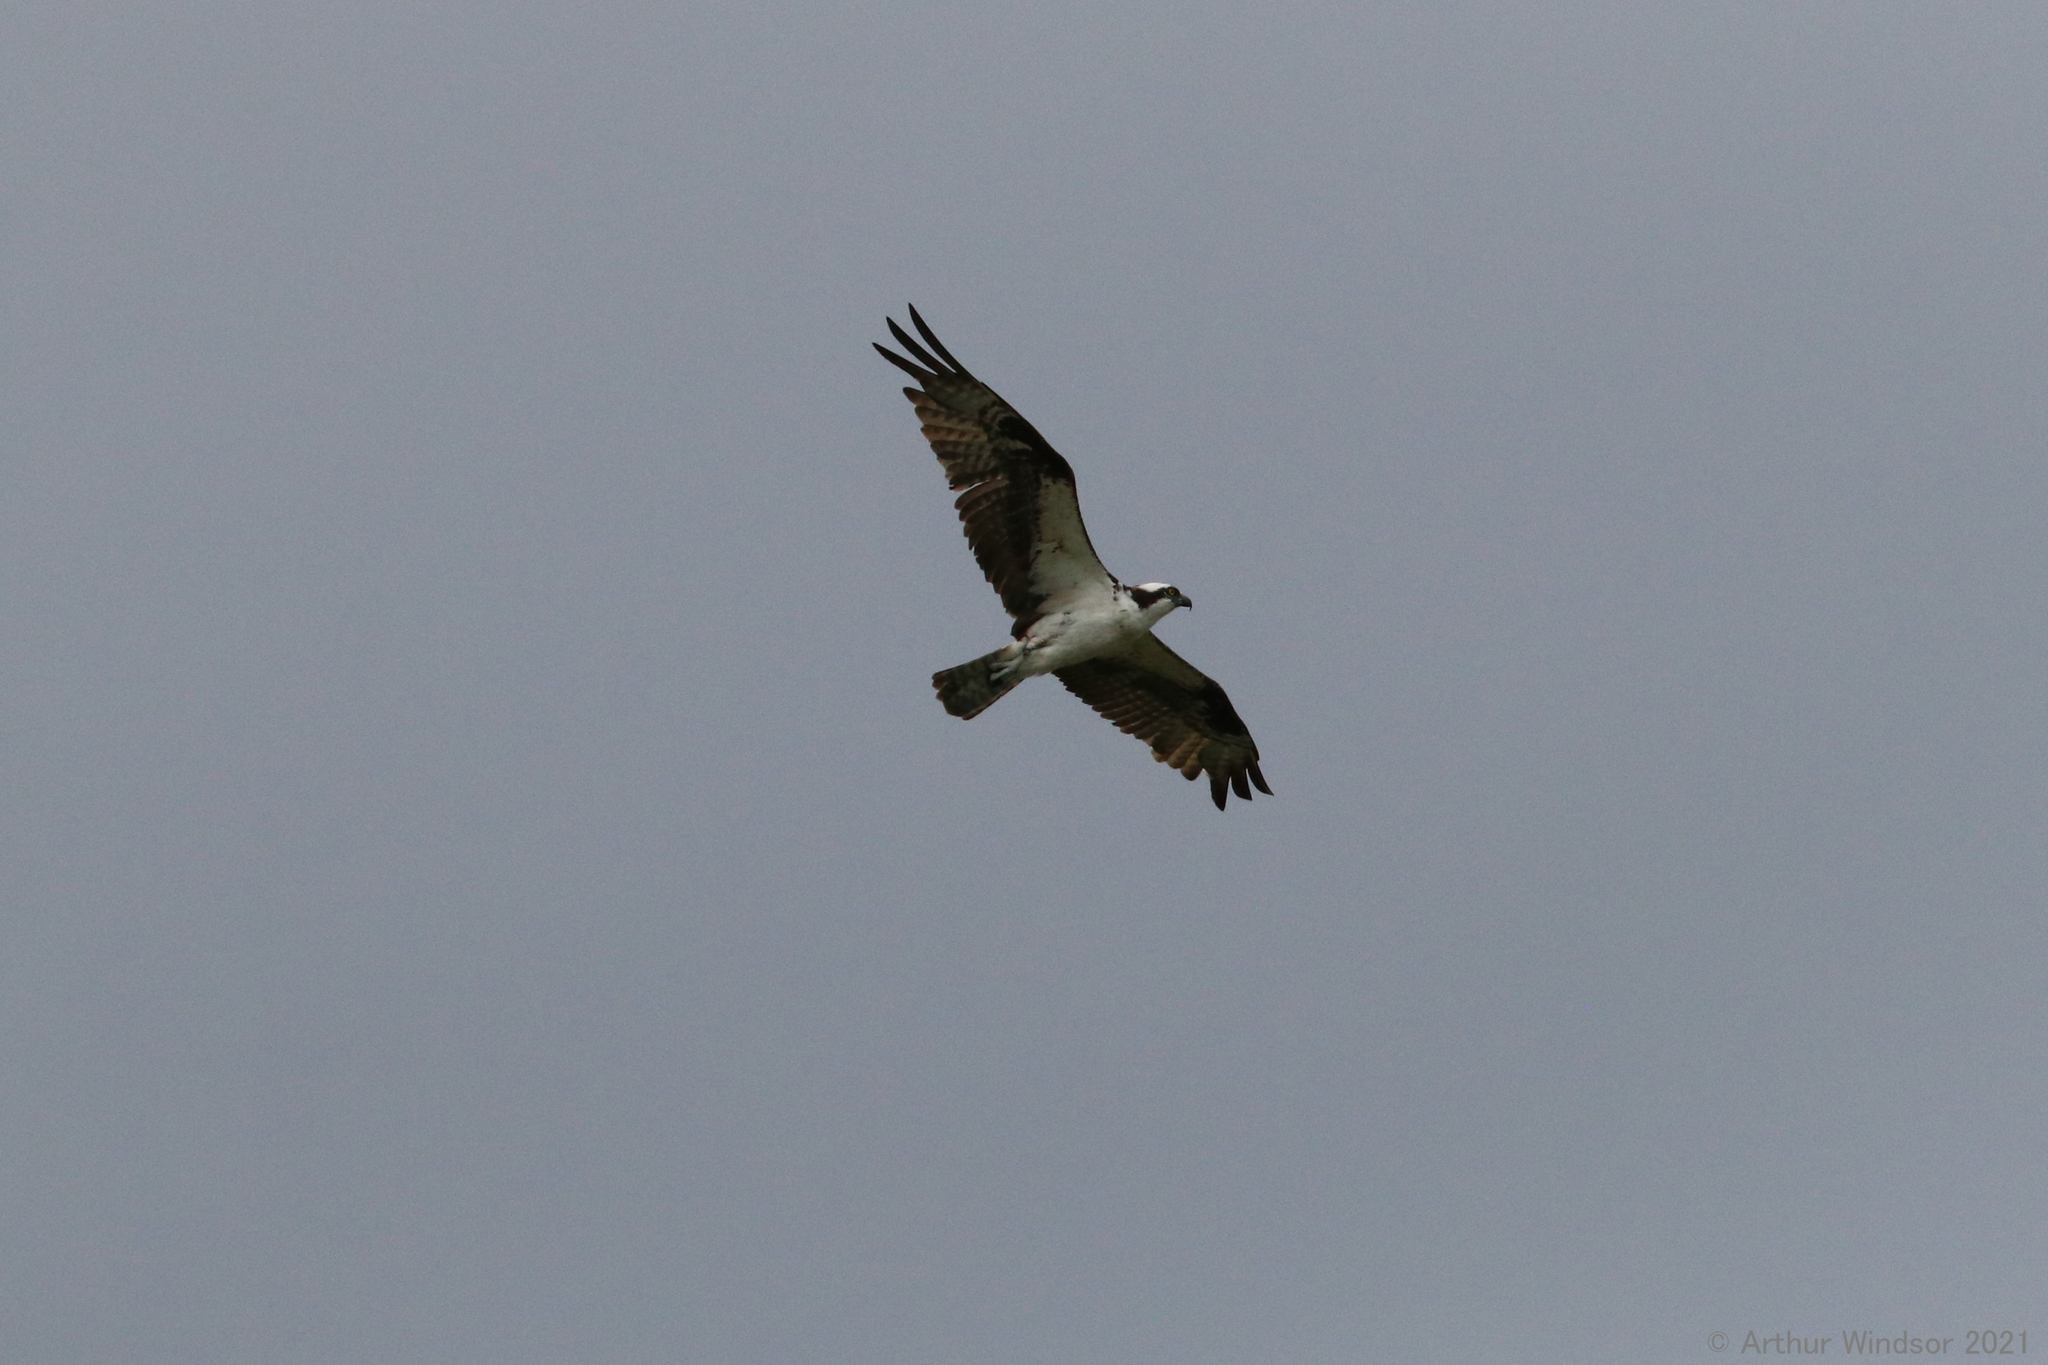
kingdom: Animalia
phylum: Chordata
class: Aves
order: Accipitriformes
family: Pandionidae
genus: Pandion
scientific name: Pandion haliaetus
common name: Osprey
